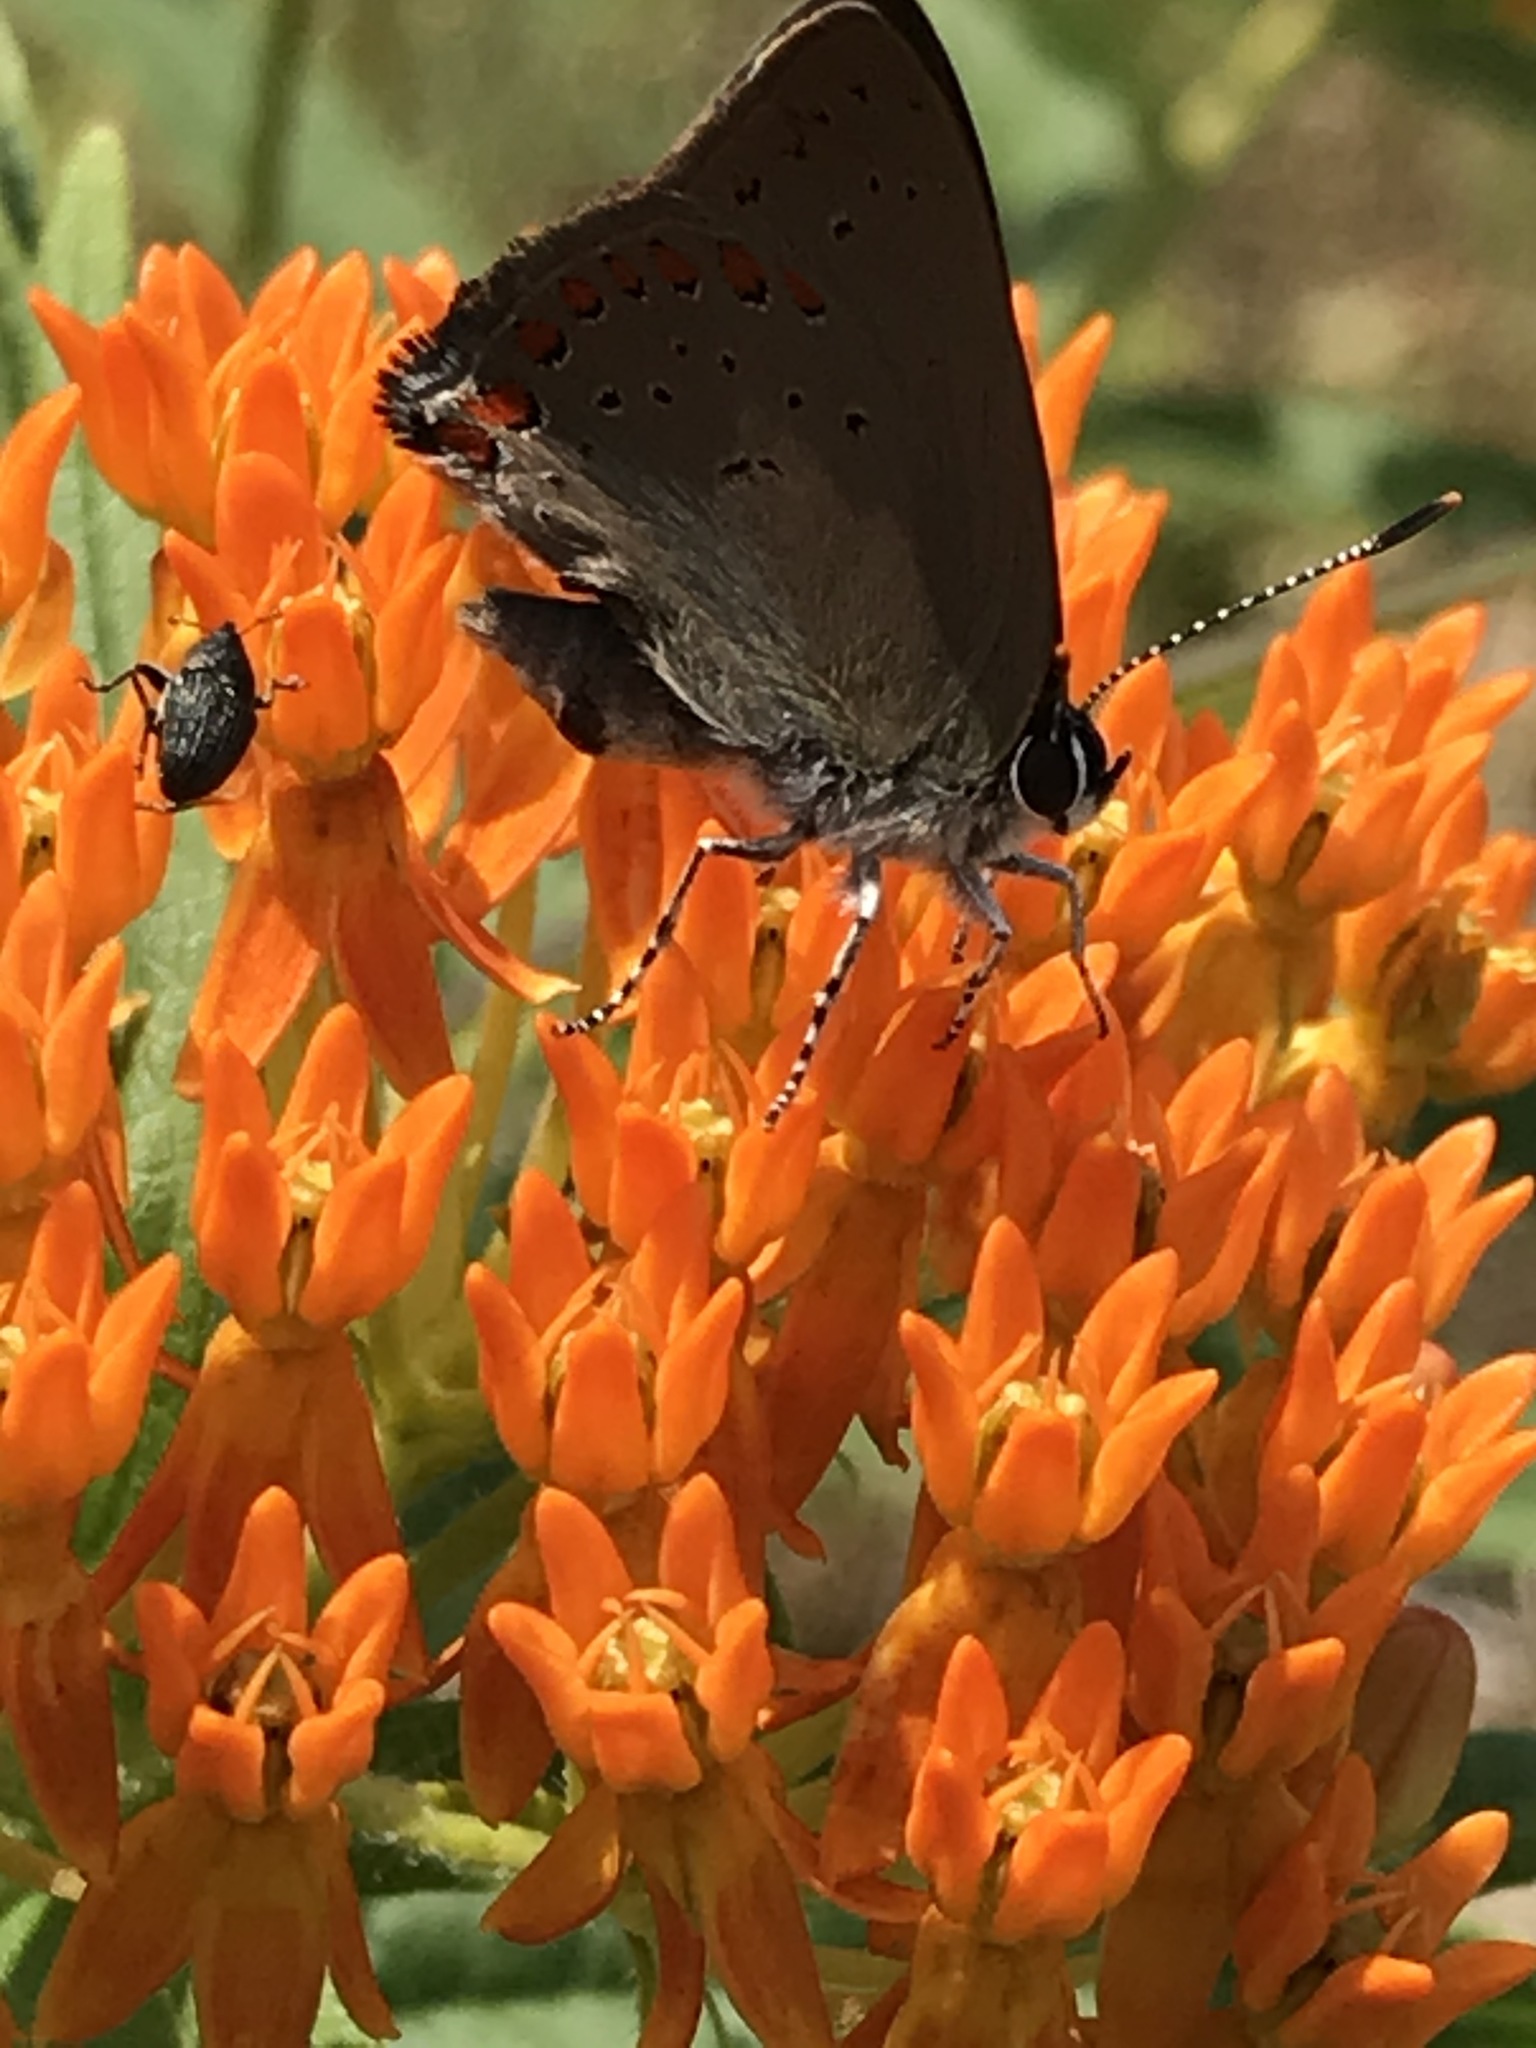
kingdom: Animalia
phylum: Arthropoda
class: Insecta
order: Lepidoptera
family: Lycaenidae
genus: Harkenclenus
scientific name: Harkenclenus titus
